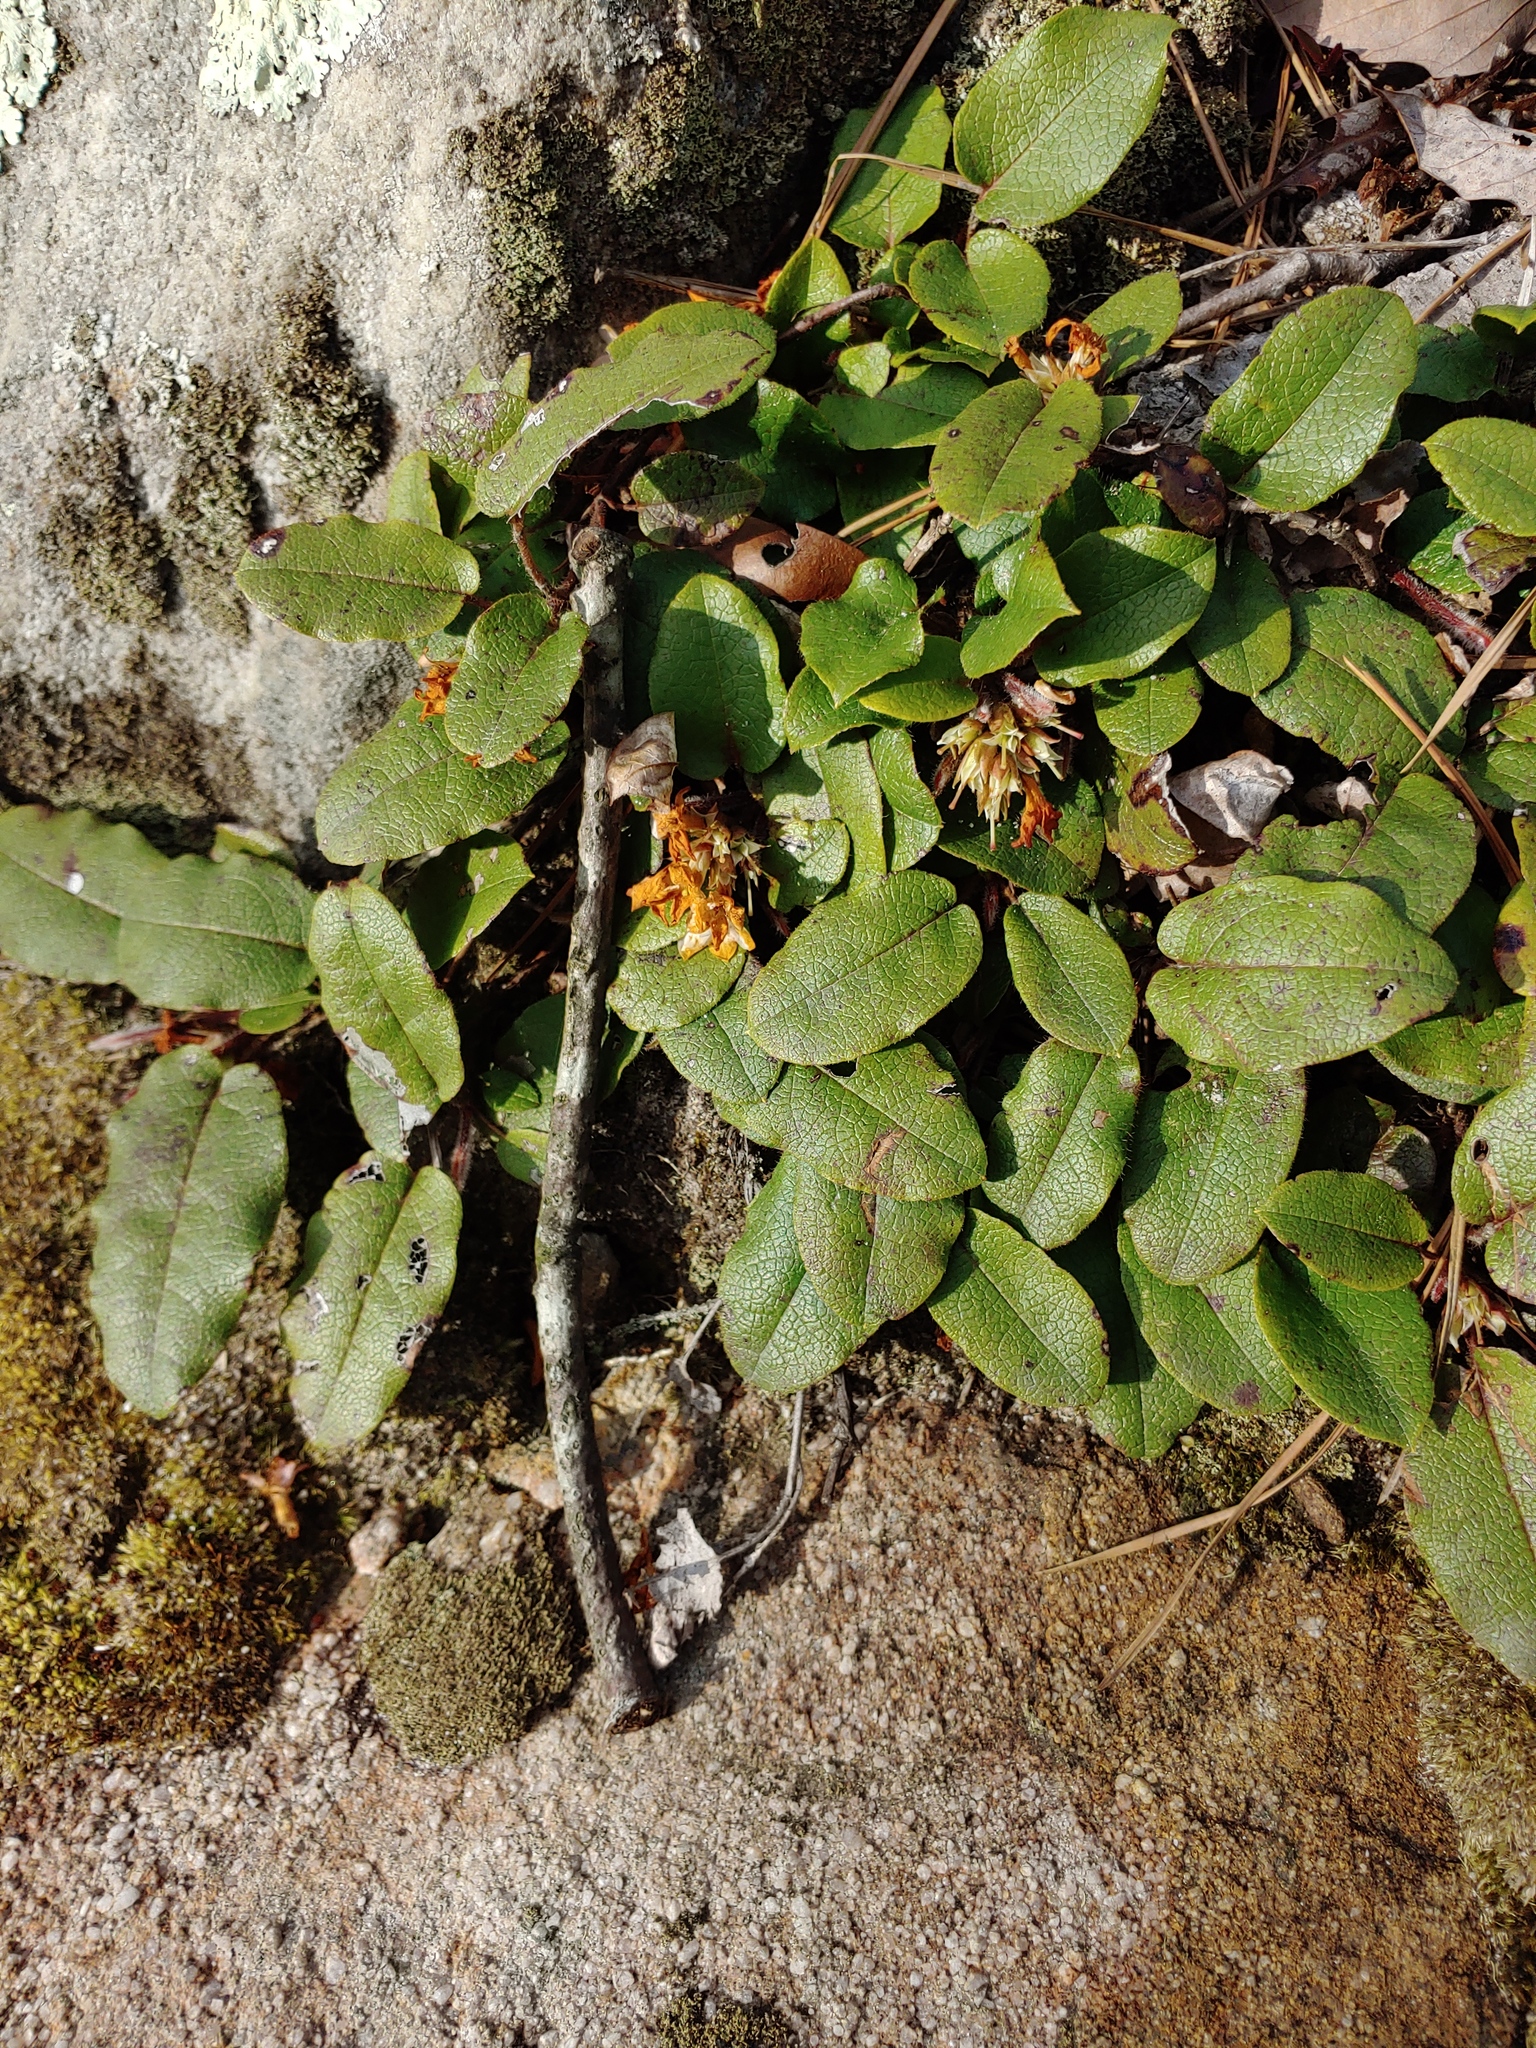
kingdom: Plantae
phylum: Tracheophyta
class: Magnoliopsida
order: Ericales
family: Ericaceae
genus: Epigaea
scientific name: Epigaea repens
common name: Gravelroot
